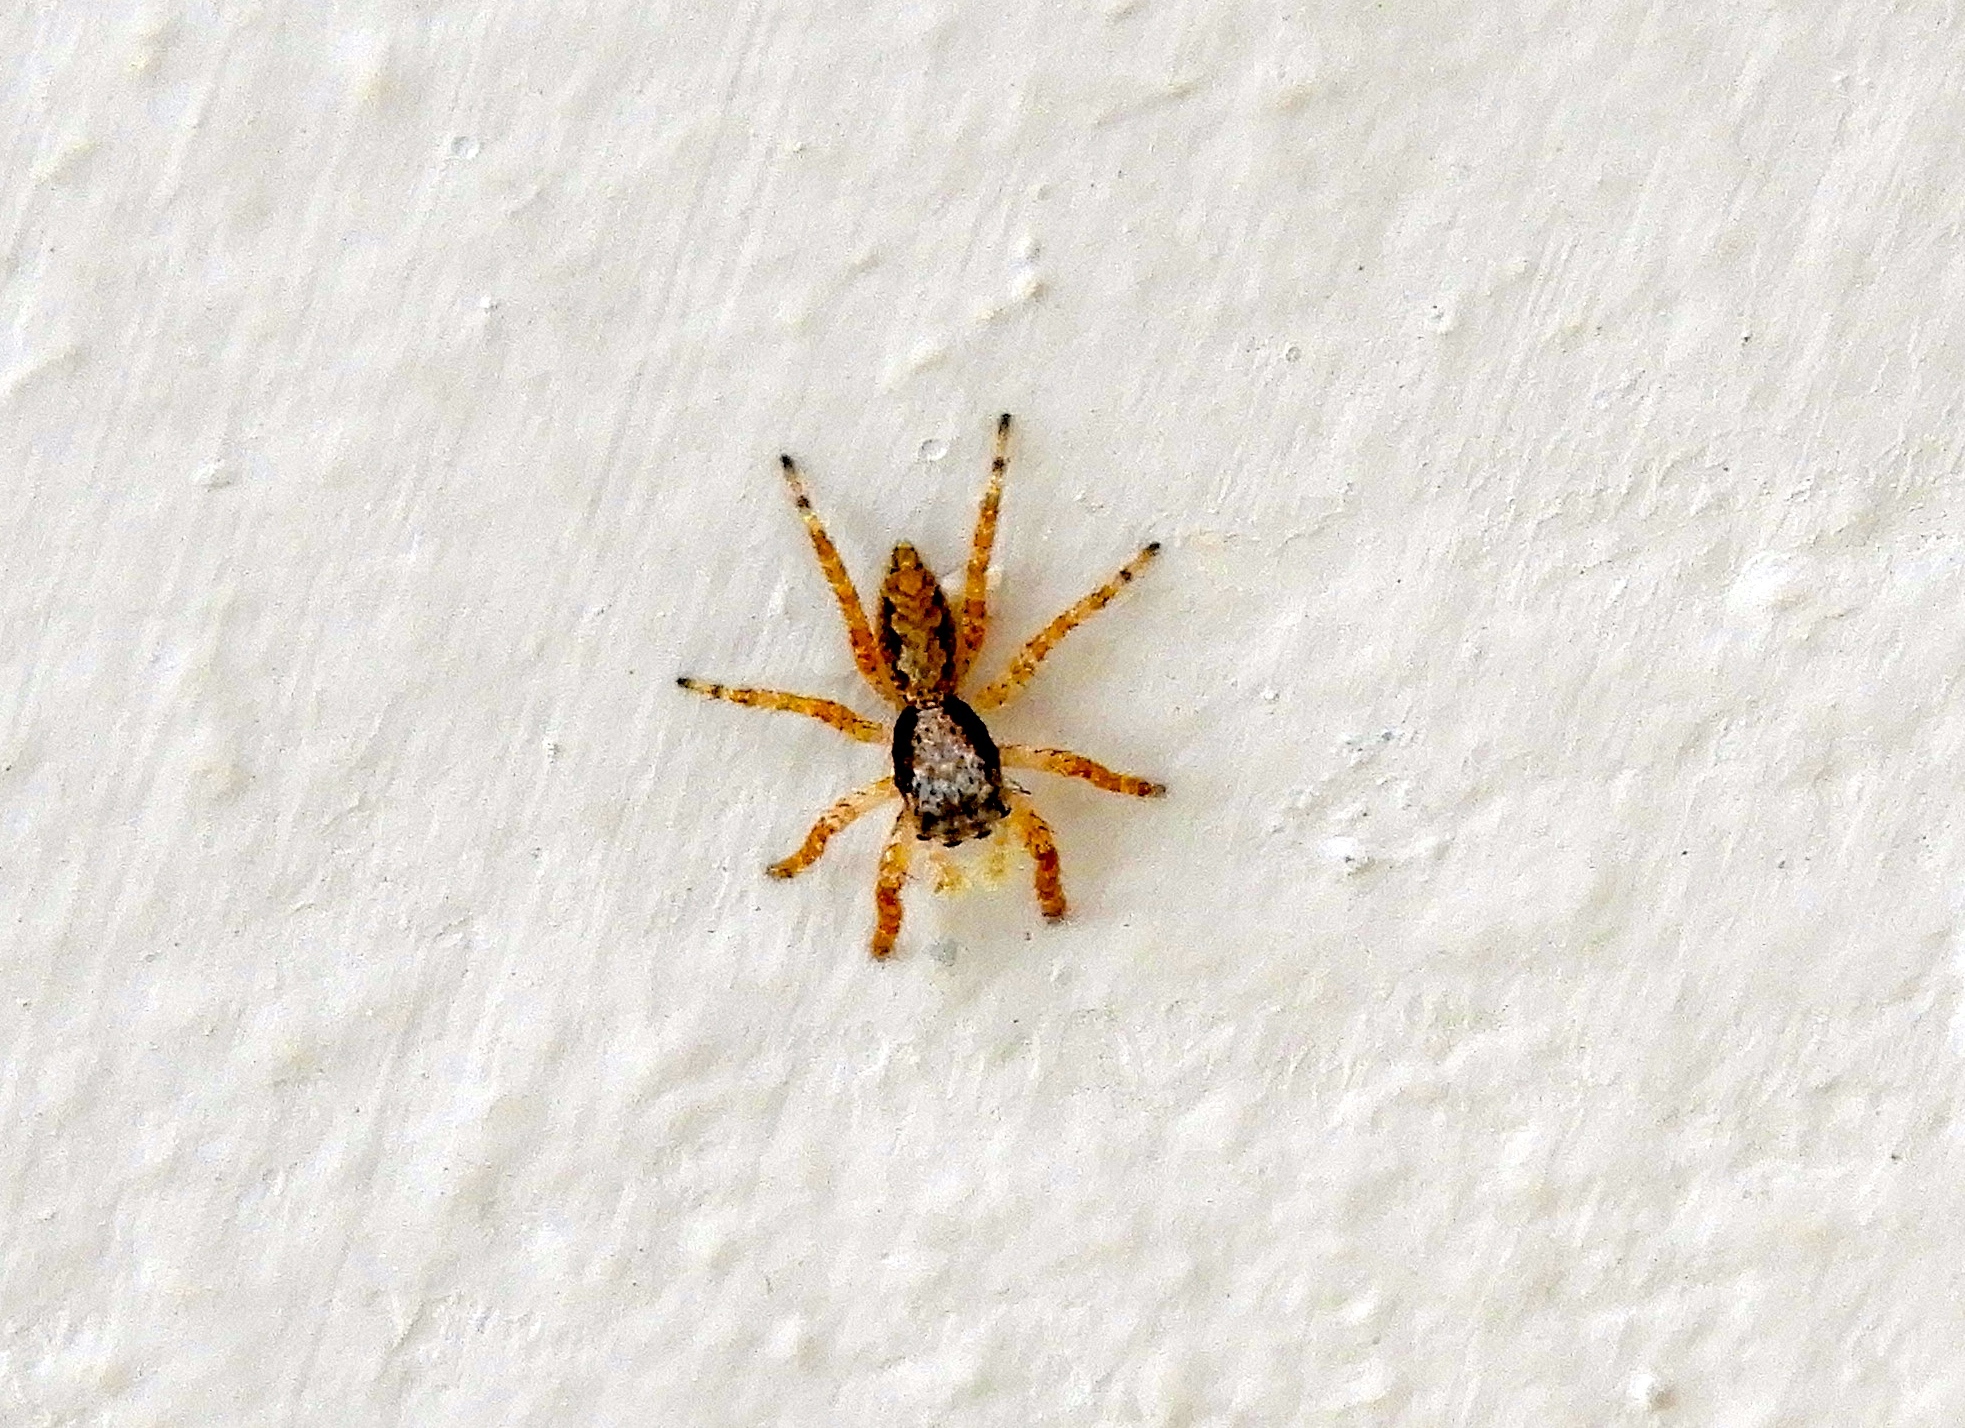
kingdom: Animalia
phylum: Arthropoda
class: Arachnida
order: Araneae
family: Salticidae
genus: Balmaceda
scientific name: Balmaceda
